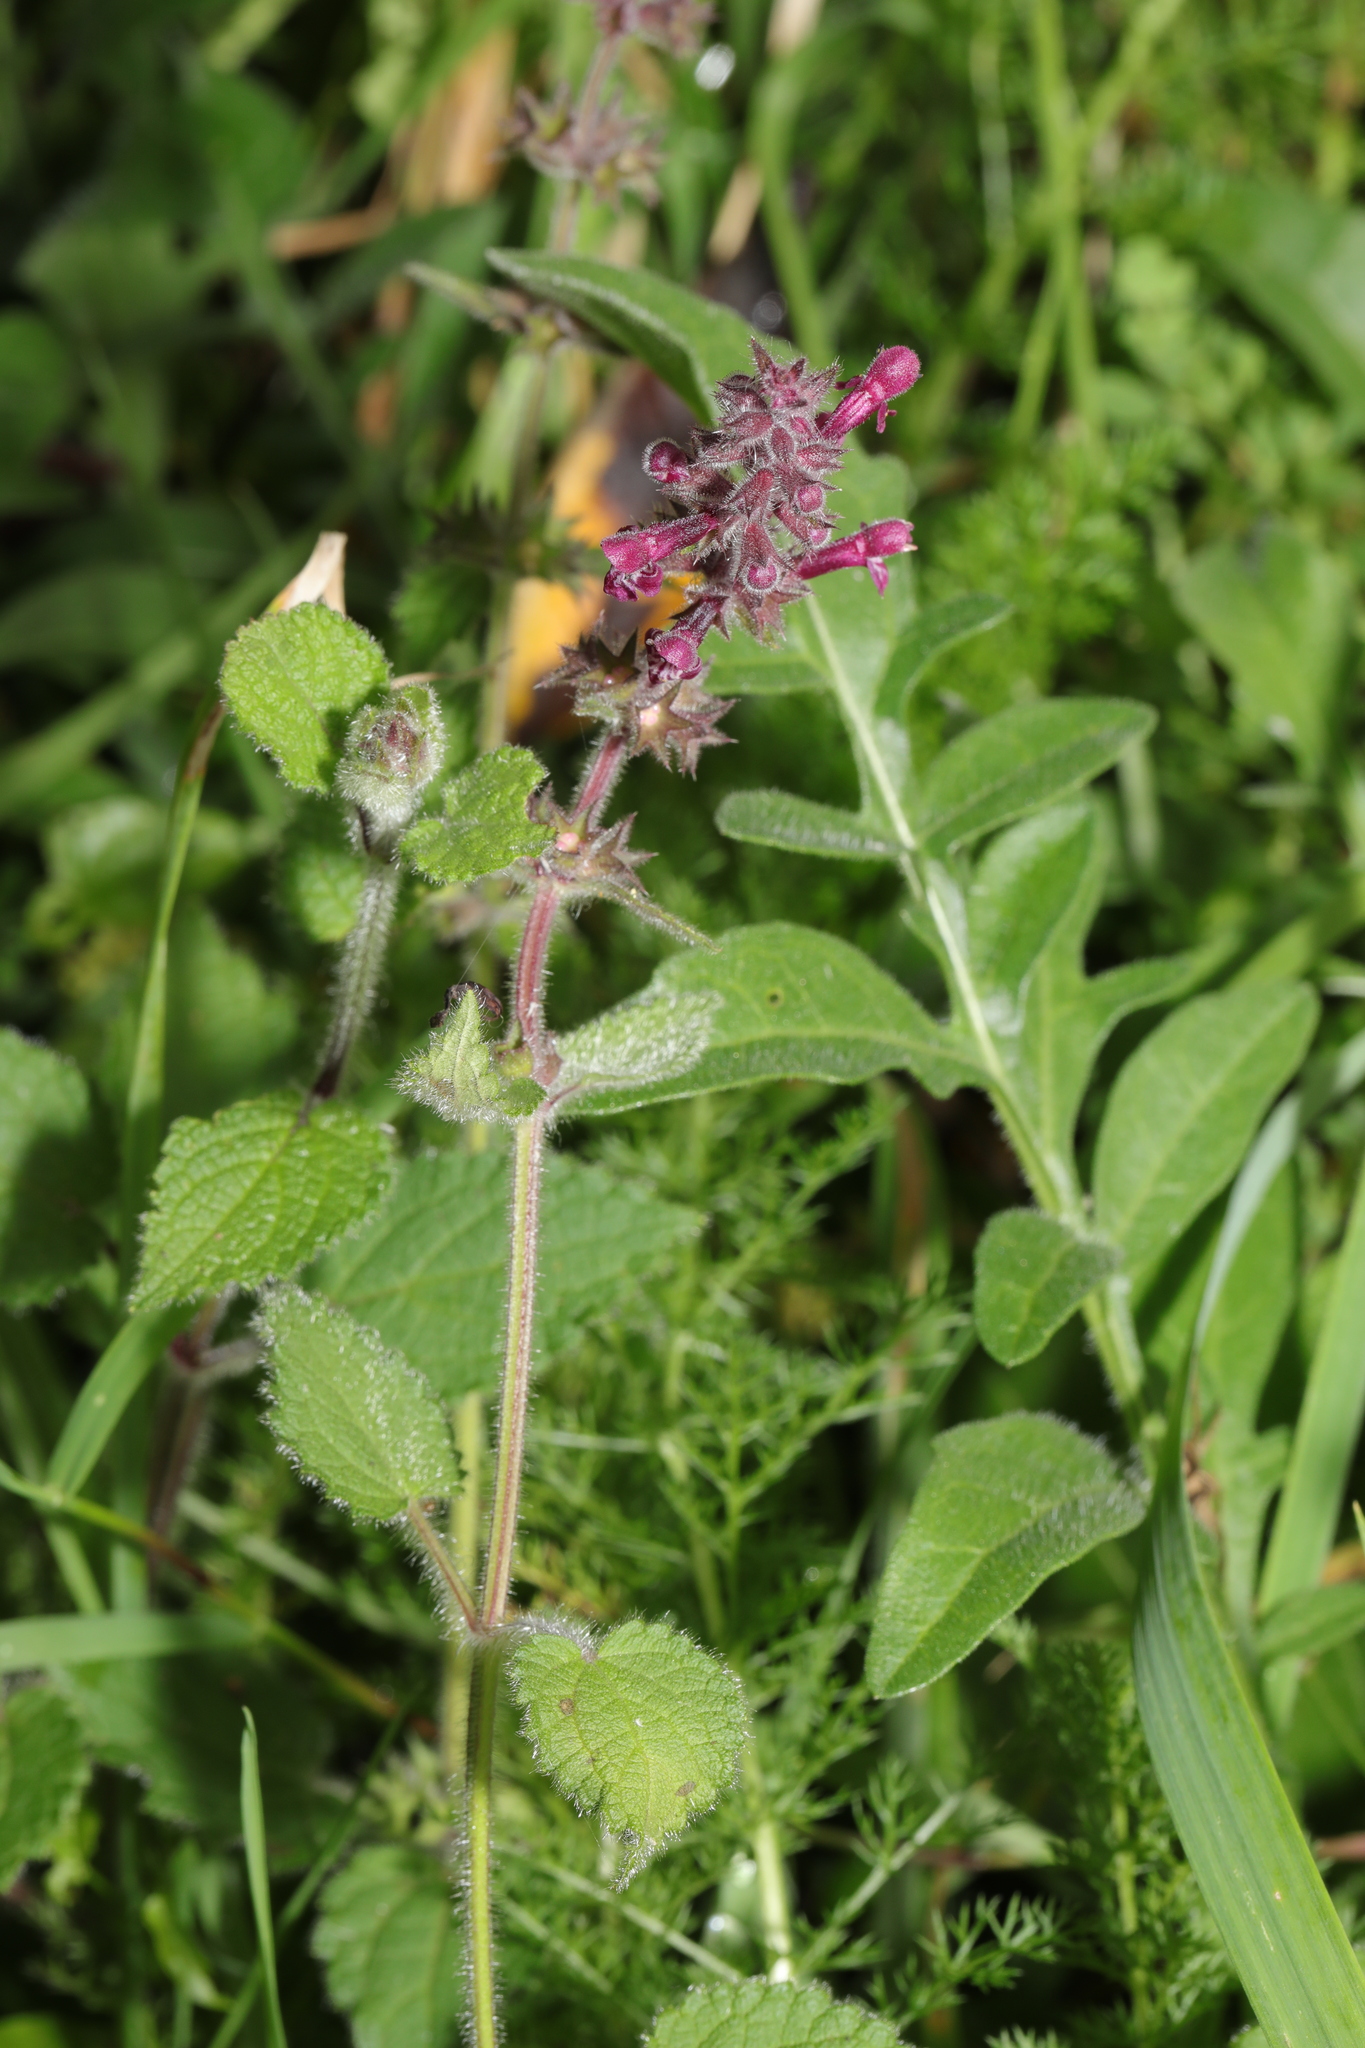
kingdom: Plantae
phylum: Tracheophyta
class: Magnoliopsida
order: Lamiales
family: Lamiaceae
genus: Stachys
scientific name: Stachys sylvatica
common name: Hedge woundwort
